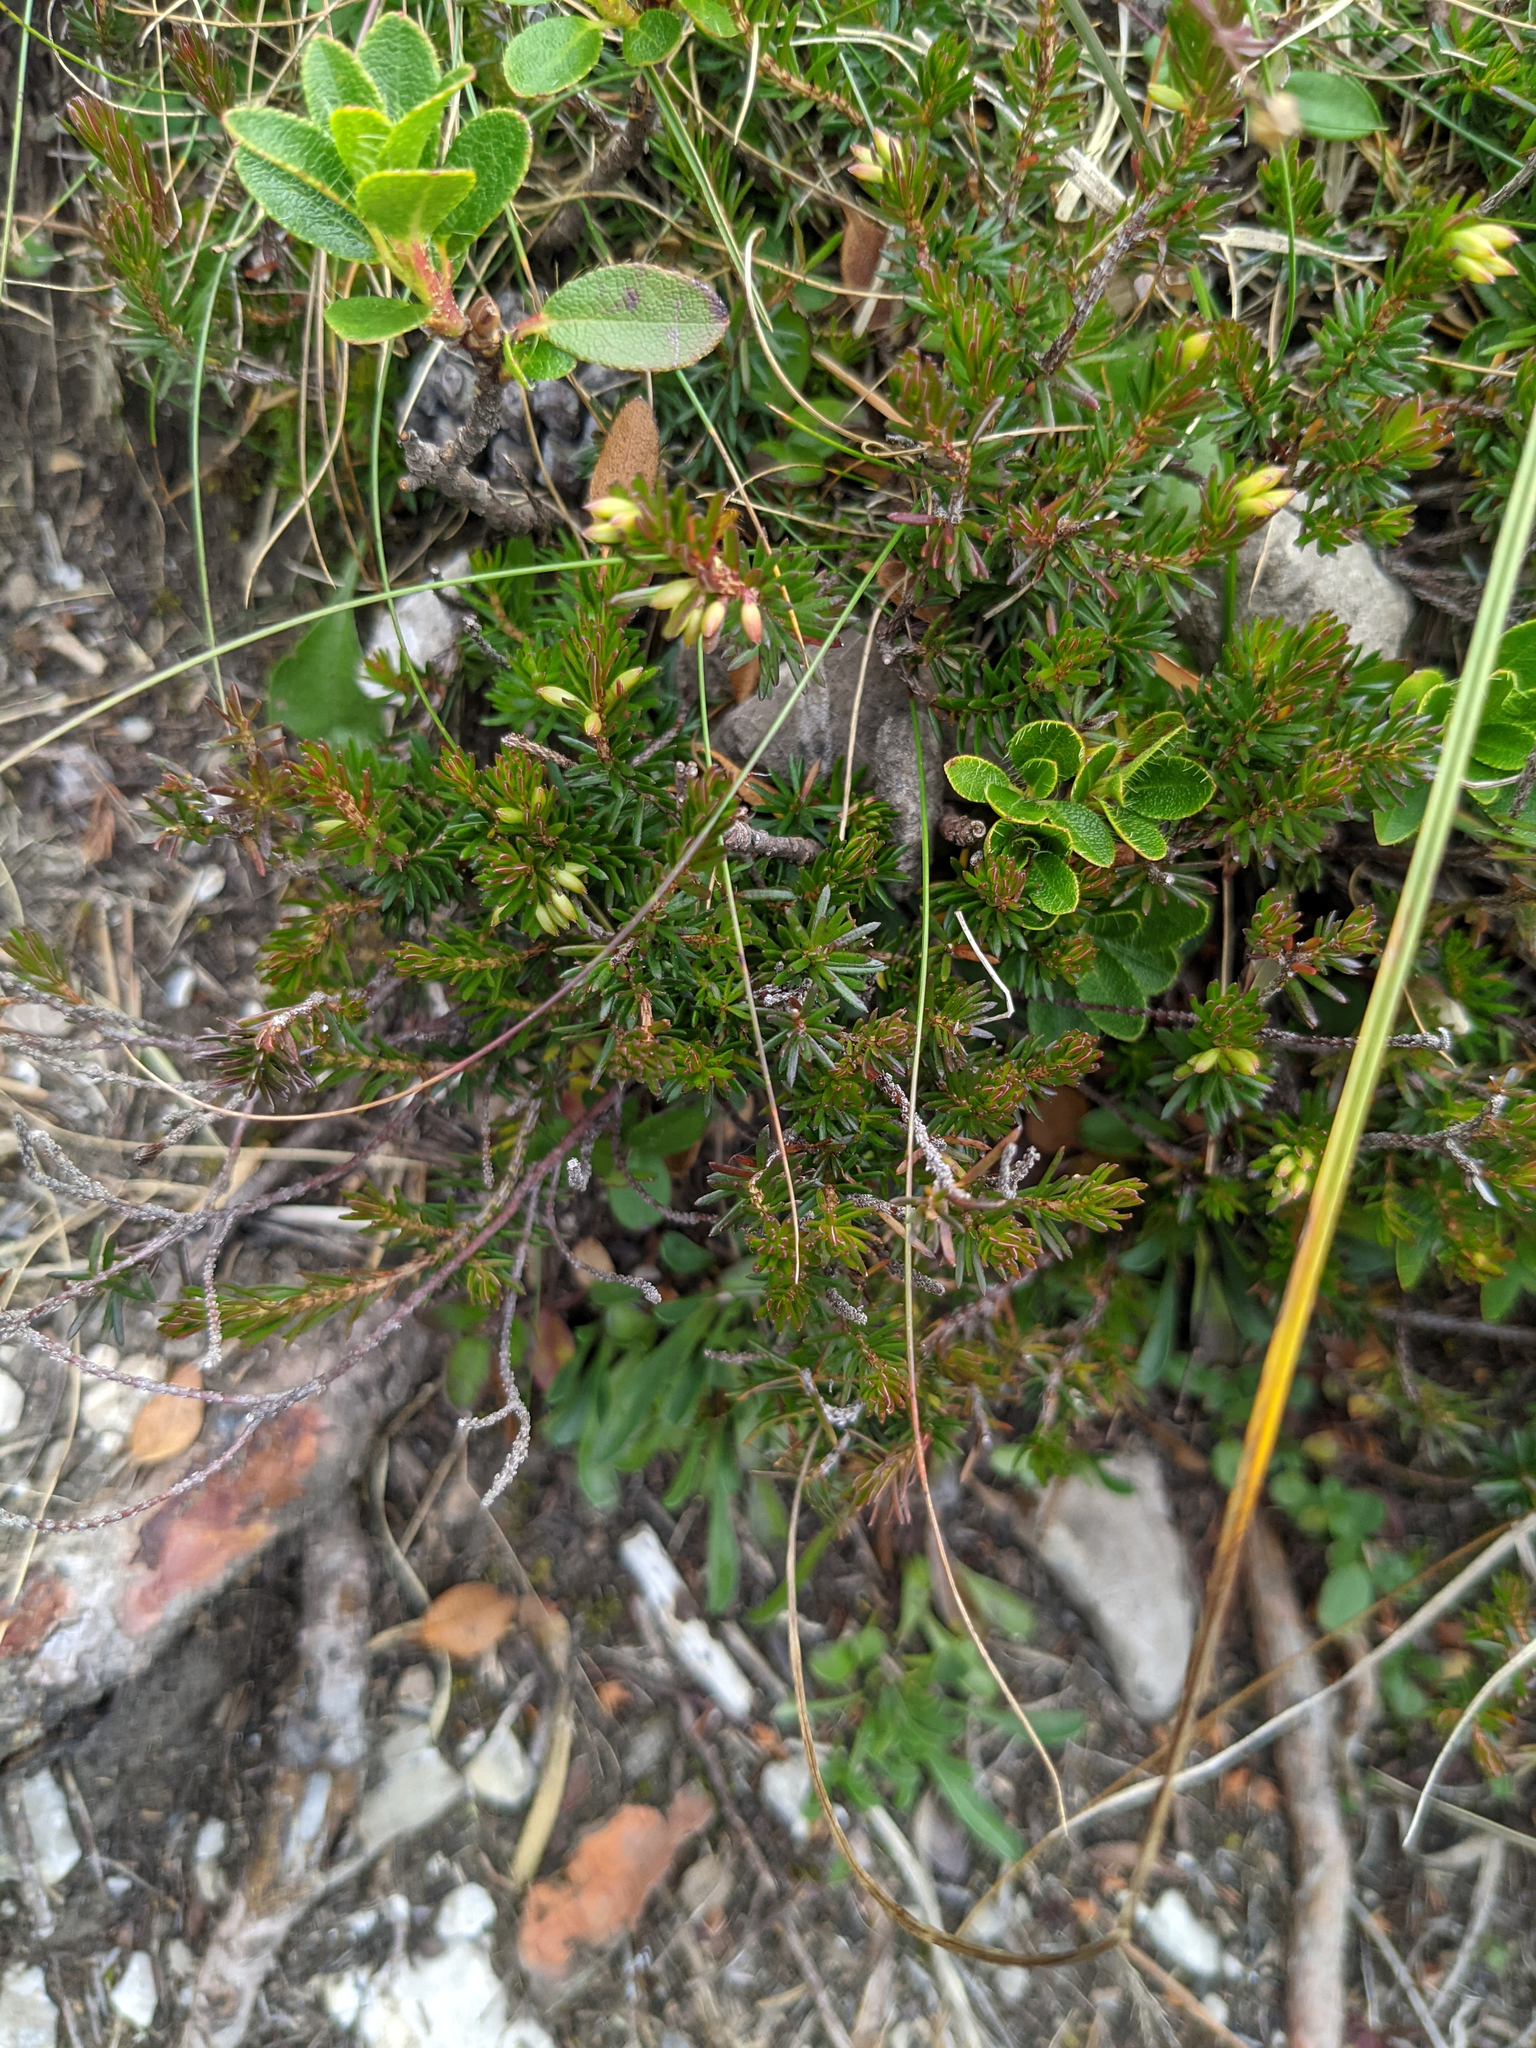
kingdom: Plantae
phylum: Tracheophyta
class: Magnoliopsida
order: Ericales
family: Ericaceae
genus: Erica
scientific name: Erica carnea
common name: Winter heath
